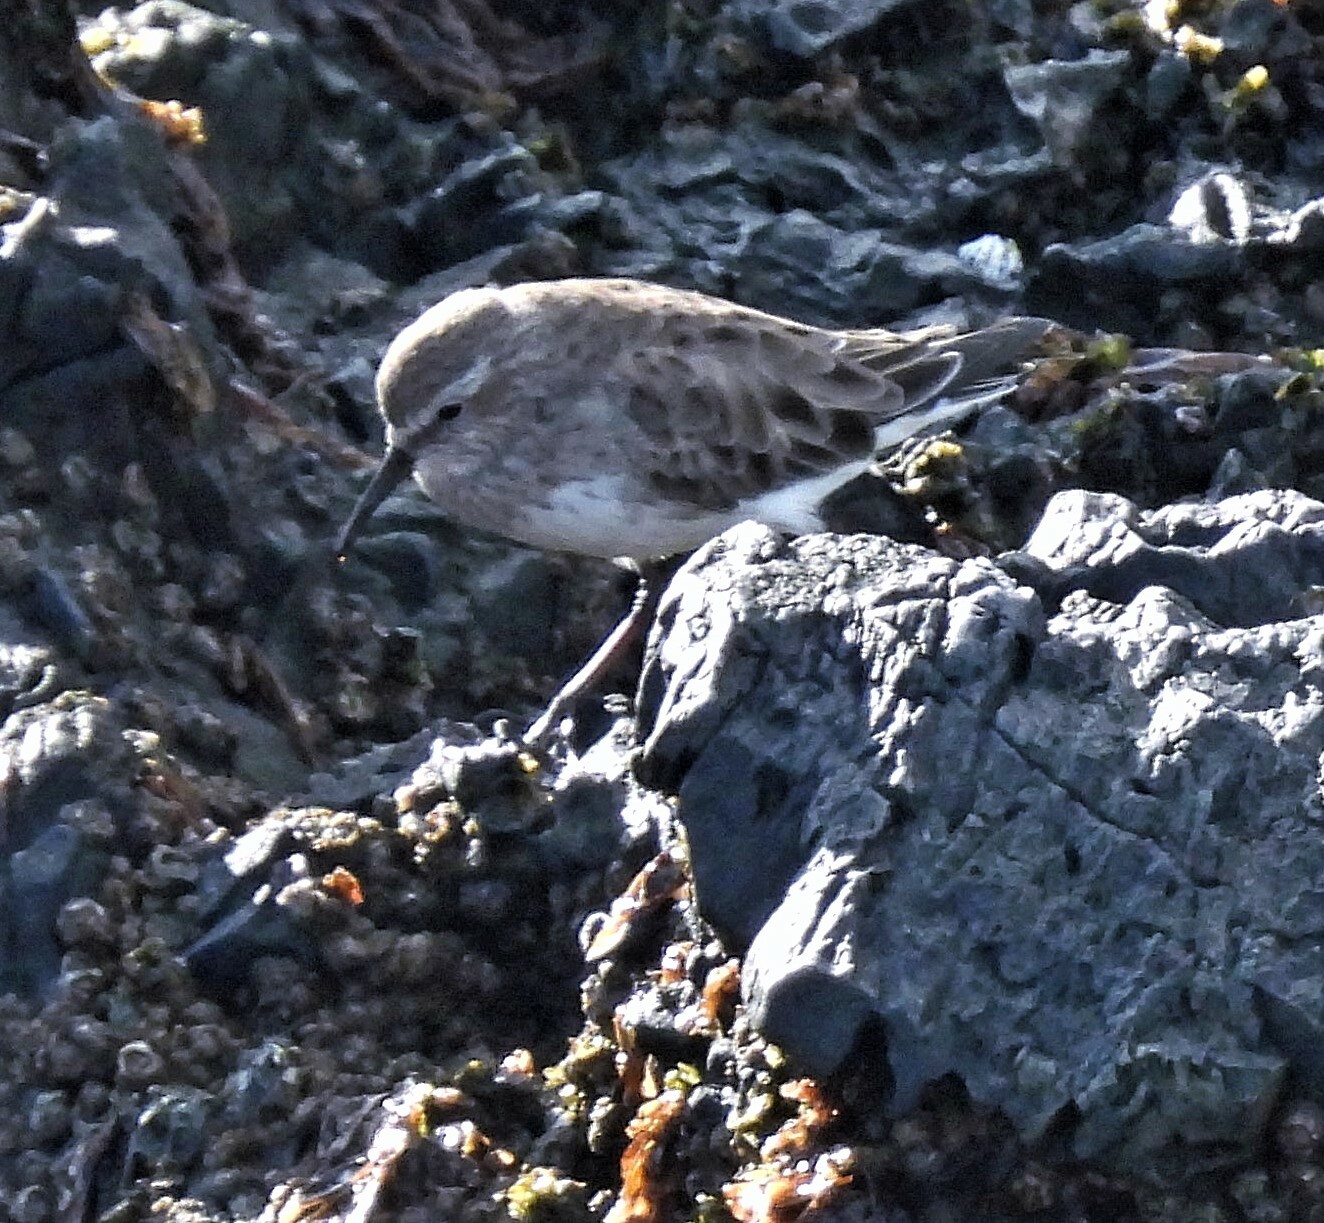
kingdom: Animalia
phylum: Chordata
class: Aves
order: Charadriiformes
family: Scolopacidae
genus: Calidris
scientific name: Calidris fuscicollis
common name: White-rumped sandpiper
